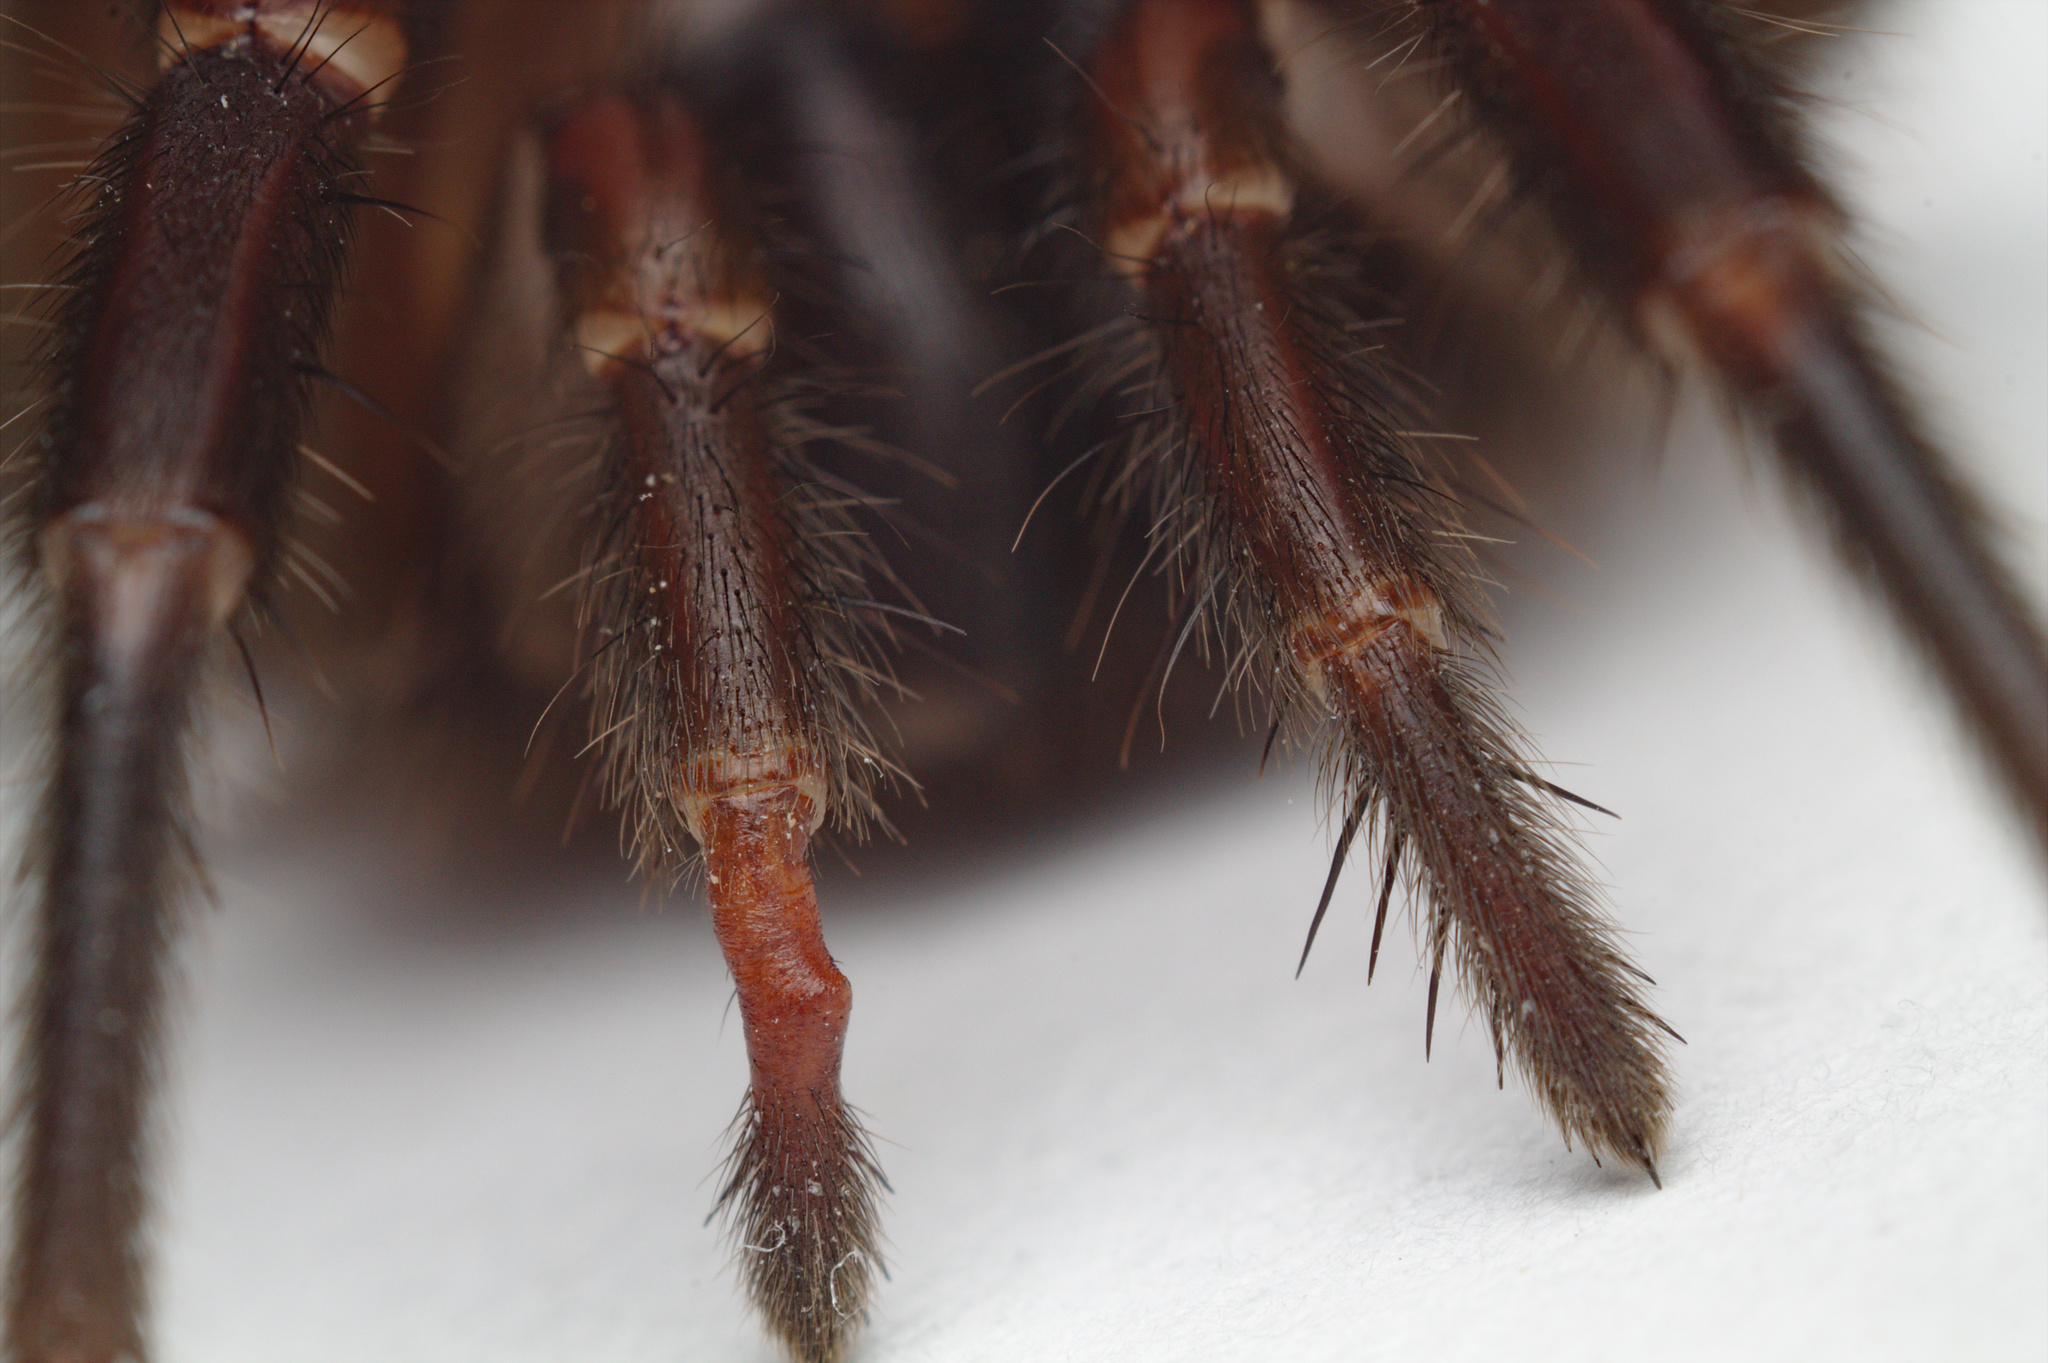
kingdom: Animalia
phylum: Arthropoda
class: Arachnida
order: Araneae
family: Hexathelidae
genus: Hexathele
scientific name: Hexathele
